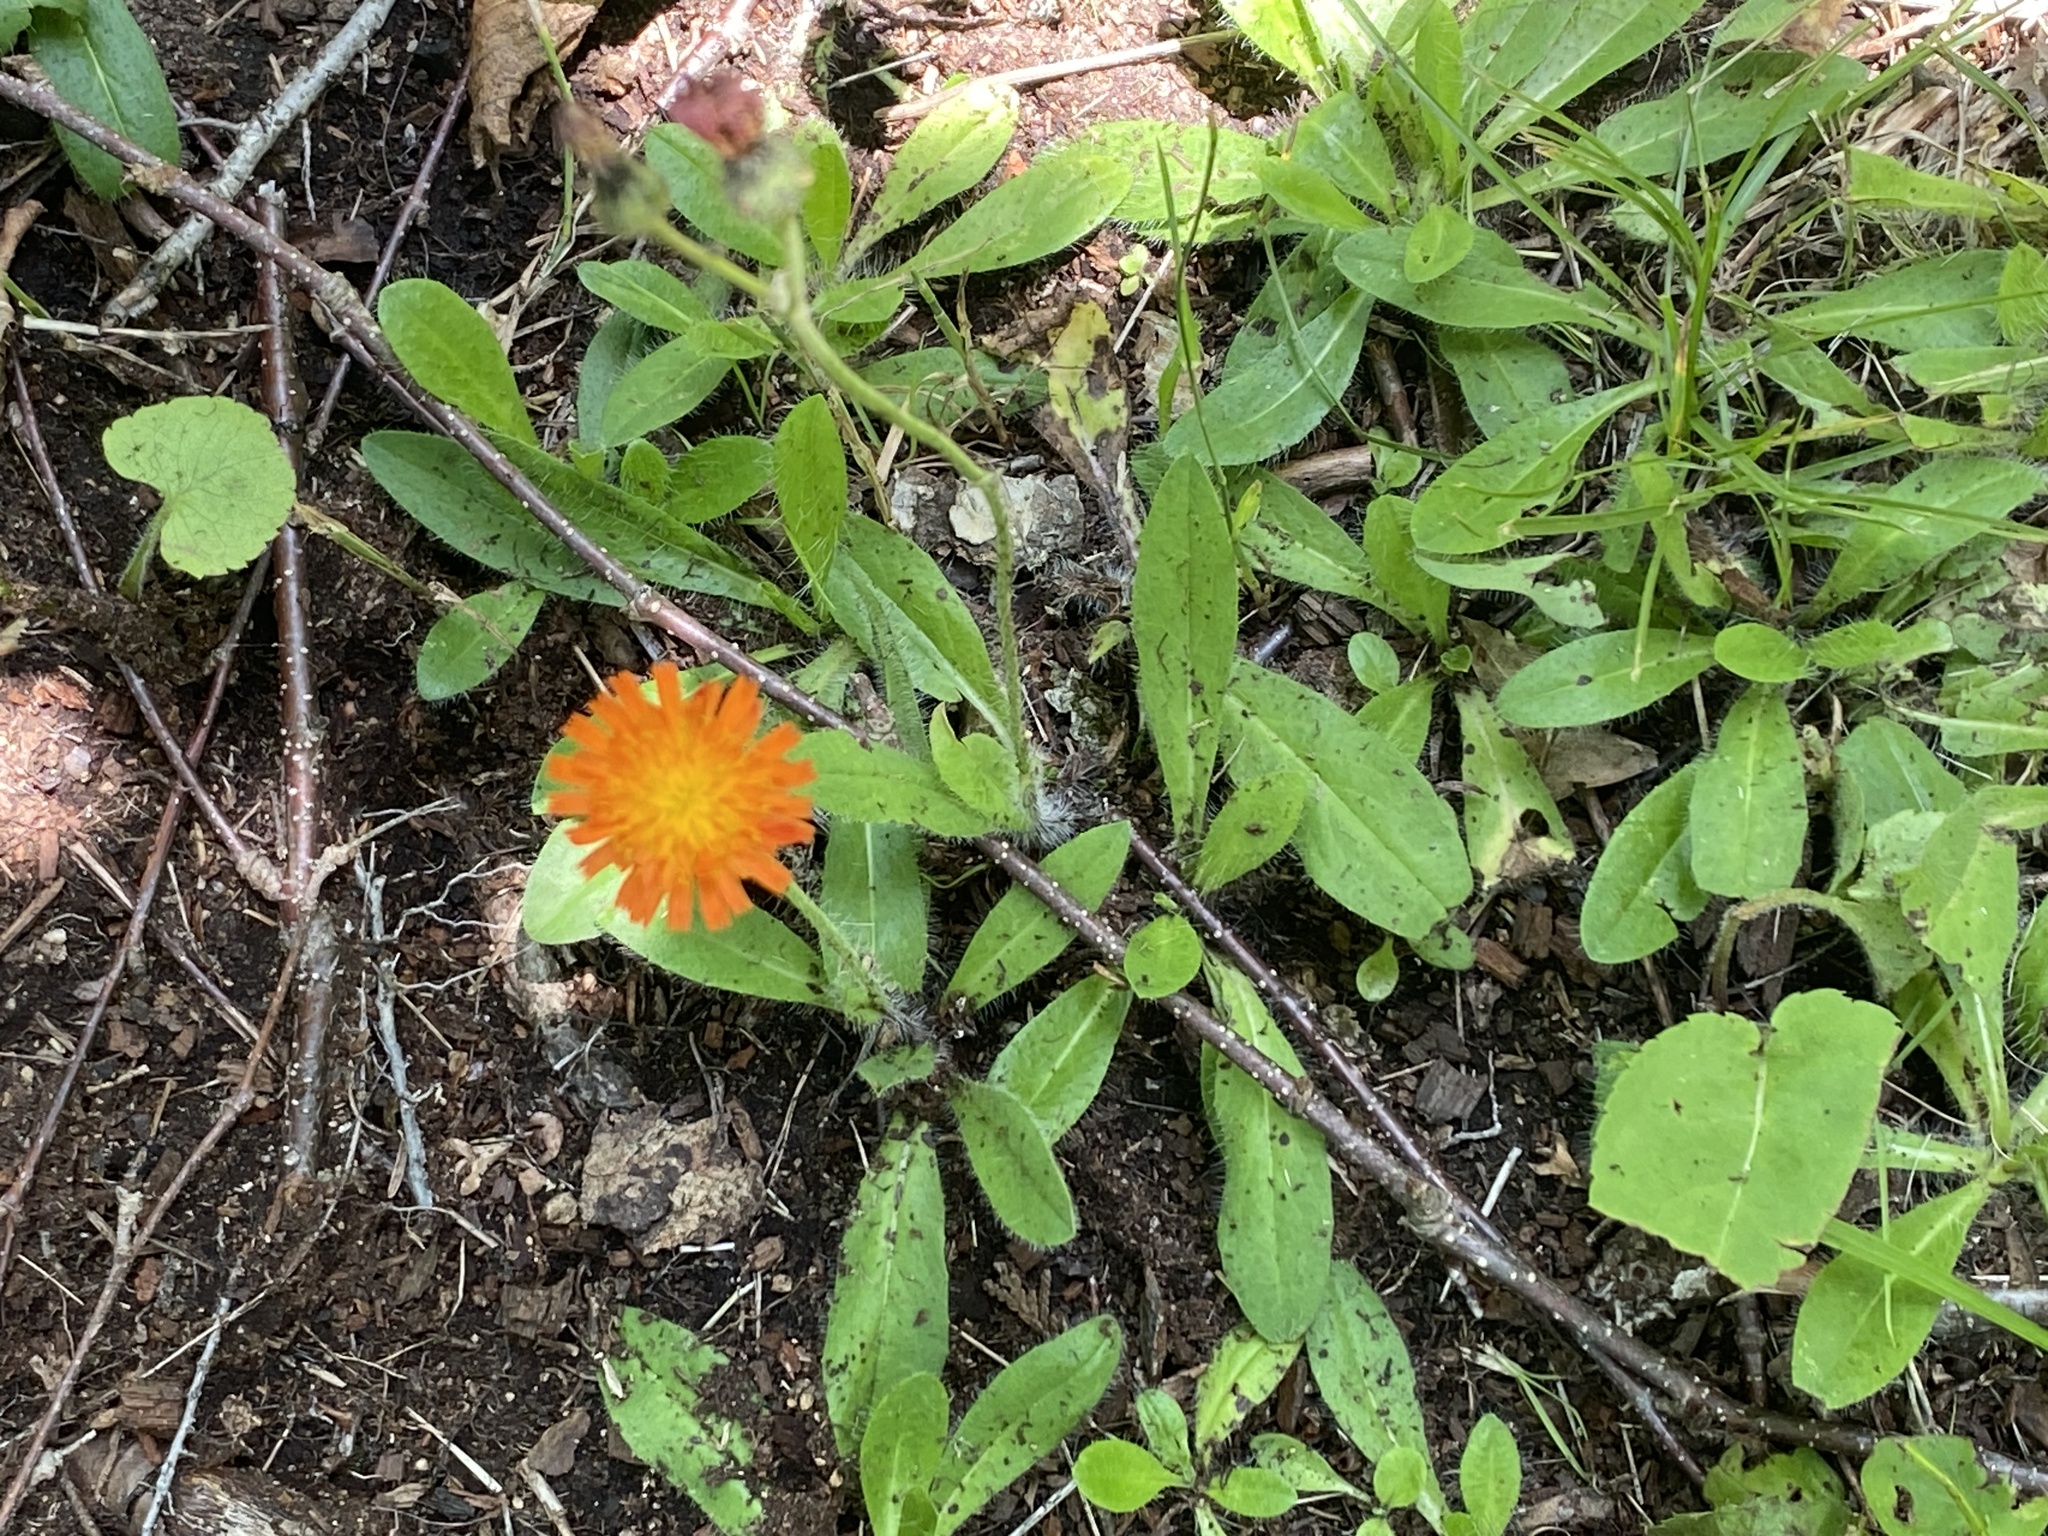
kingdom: Plantae
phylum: Tracheophyta
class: Magnoliopsida
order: Asterales
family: Asteraceae
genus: Pilosella
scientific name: Pilosella aurantiaca
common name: Fox-and-cubs
